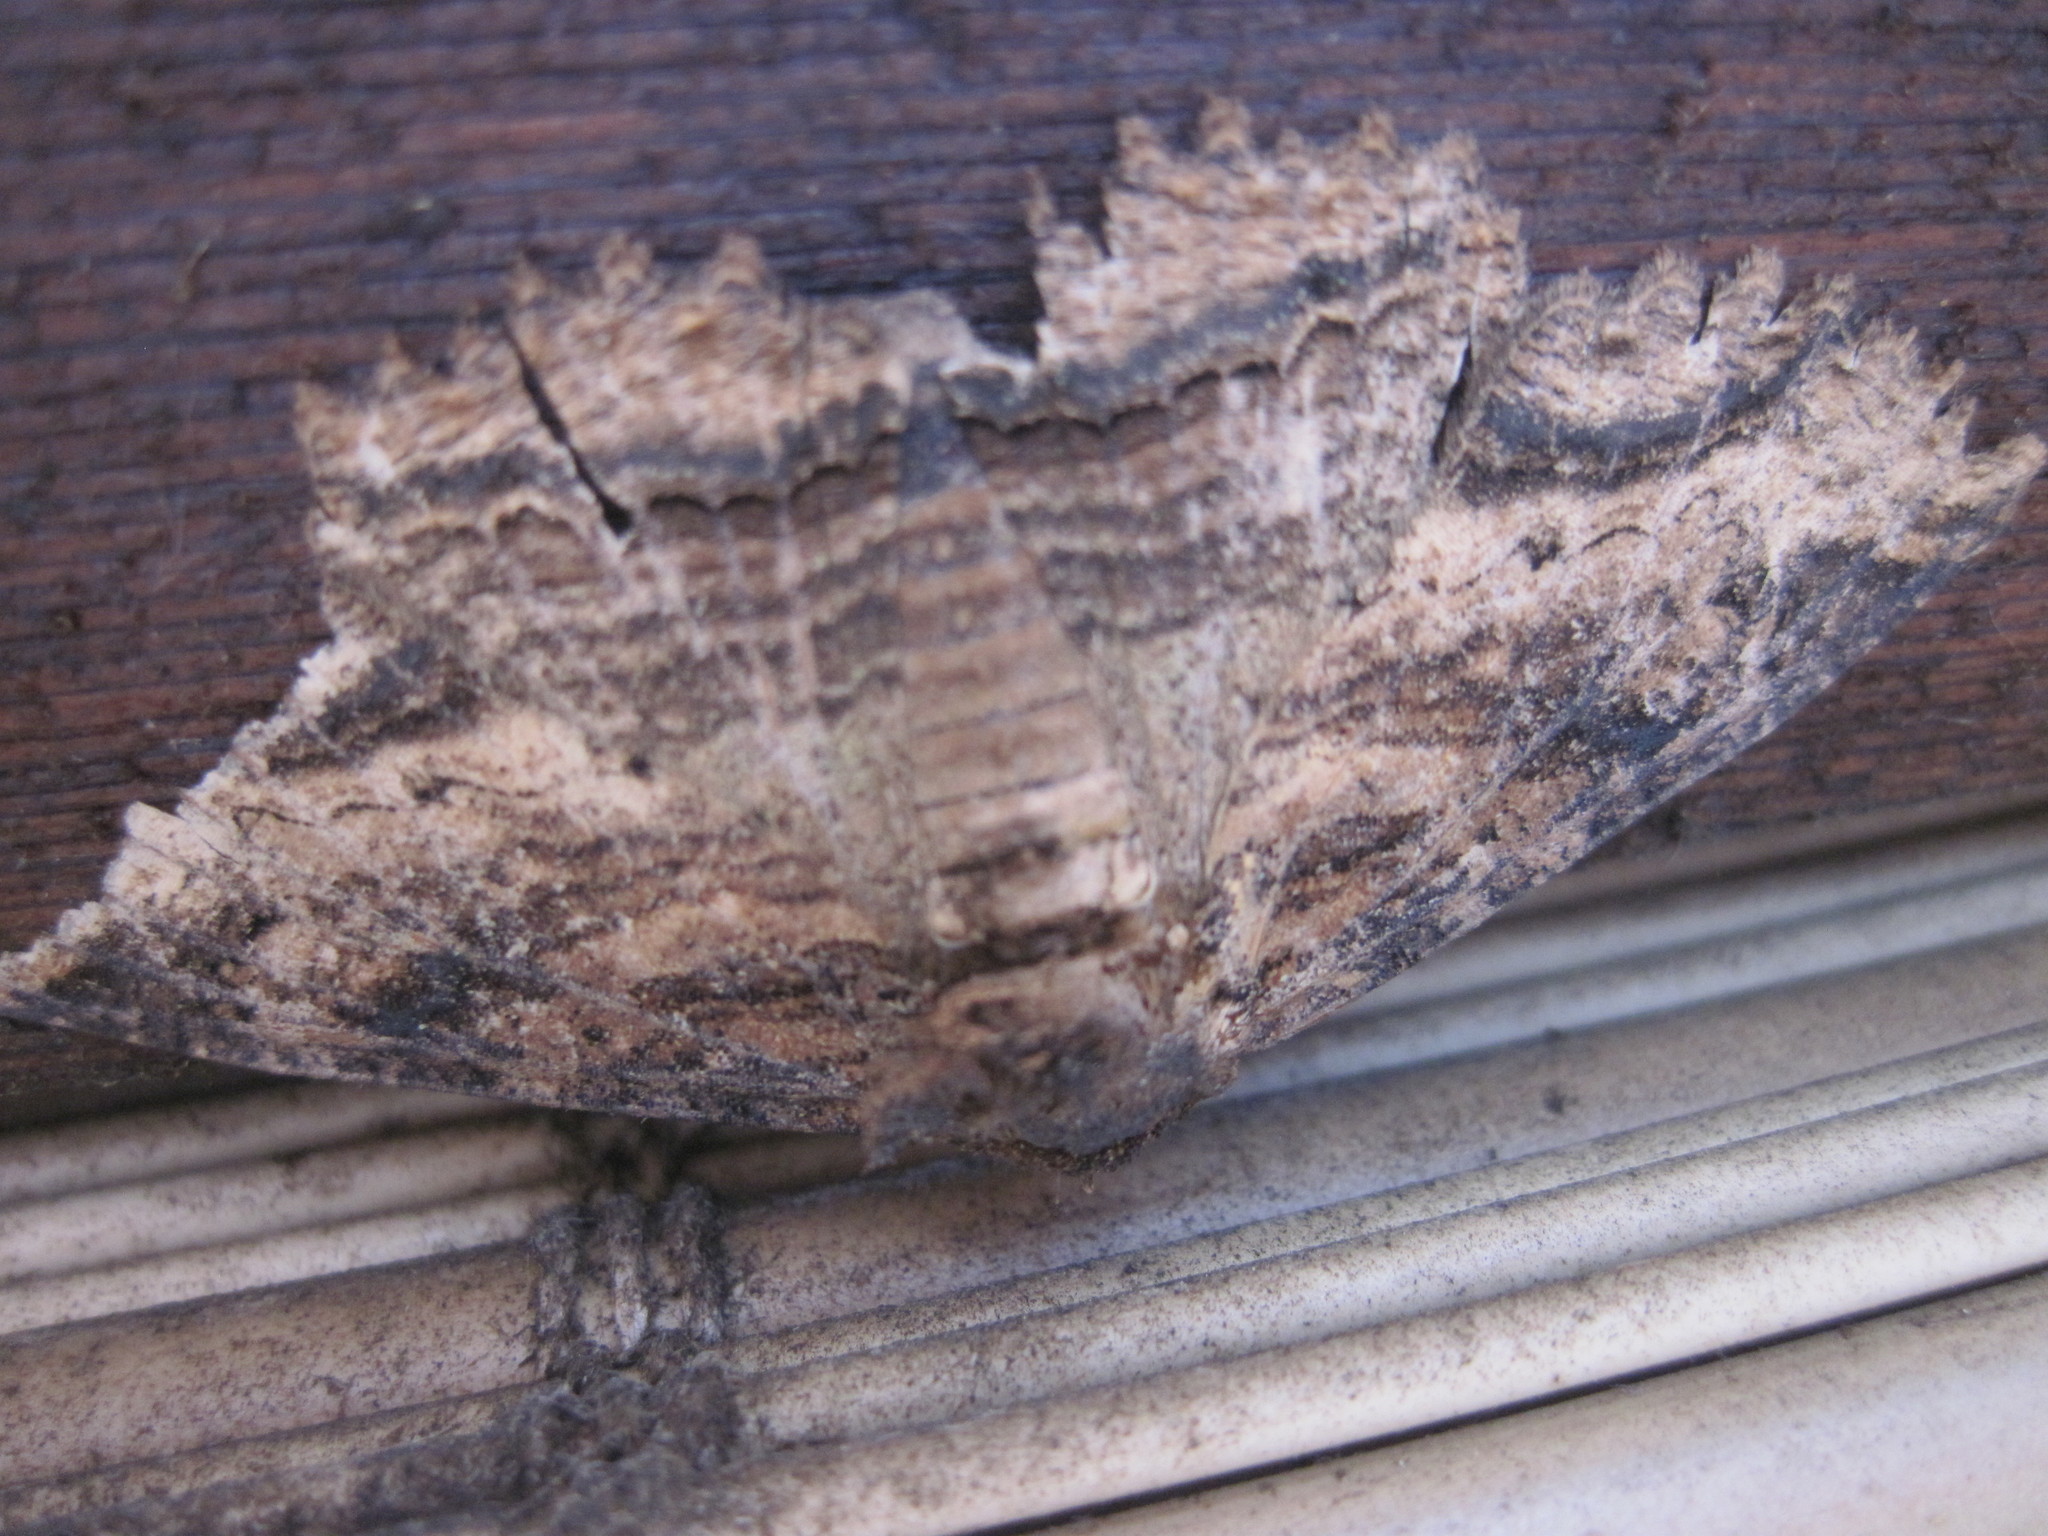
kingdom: Animalia
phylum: Arthropoda
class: Insecta
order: Lepidoptera
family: Erebidae
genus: Zale
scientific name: Zale lunata
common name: Lunate zale moth
